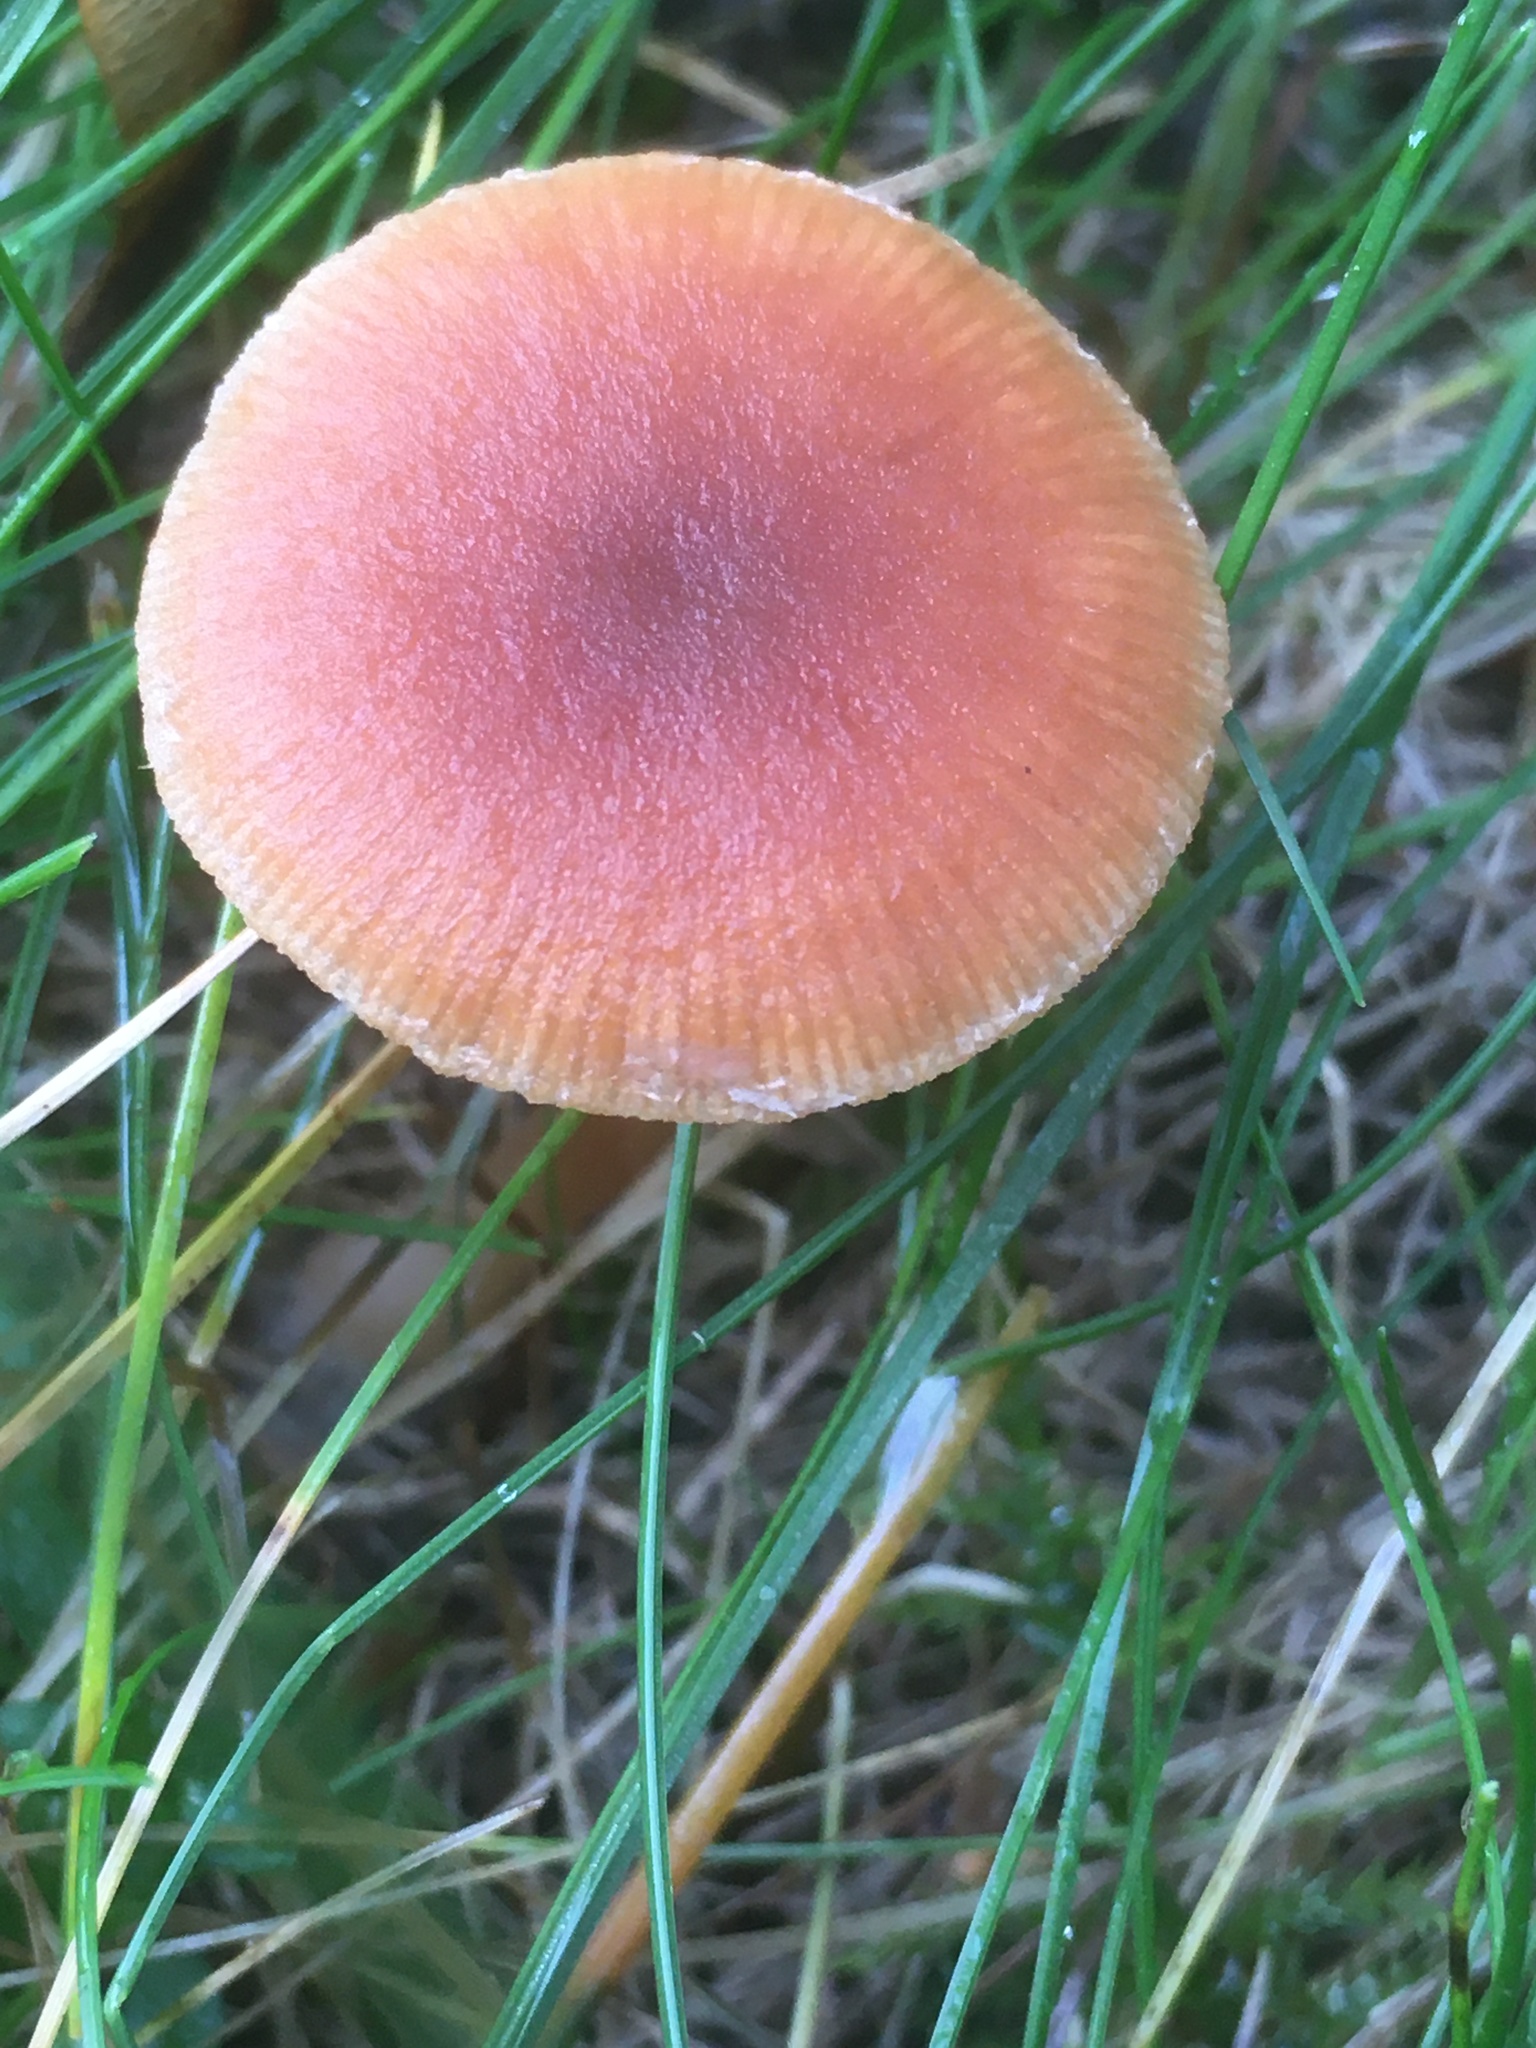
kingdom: Fungi
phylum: Basidiomycota
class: Agaricomycetes
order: Agaricales
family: Tubariaceae
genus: Tubaria
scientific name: Tubaria furfuracea
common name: Scurfy twiglet
